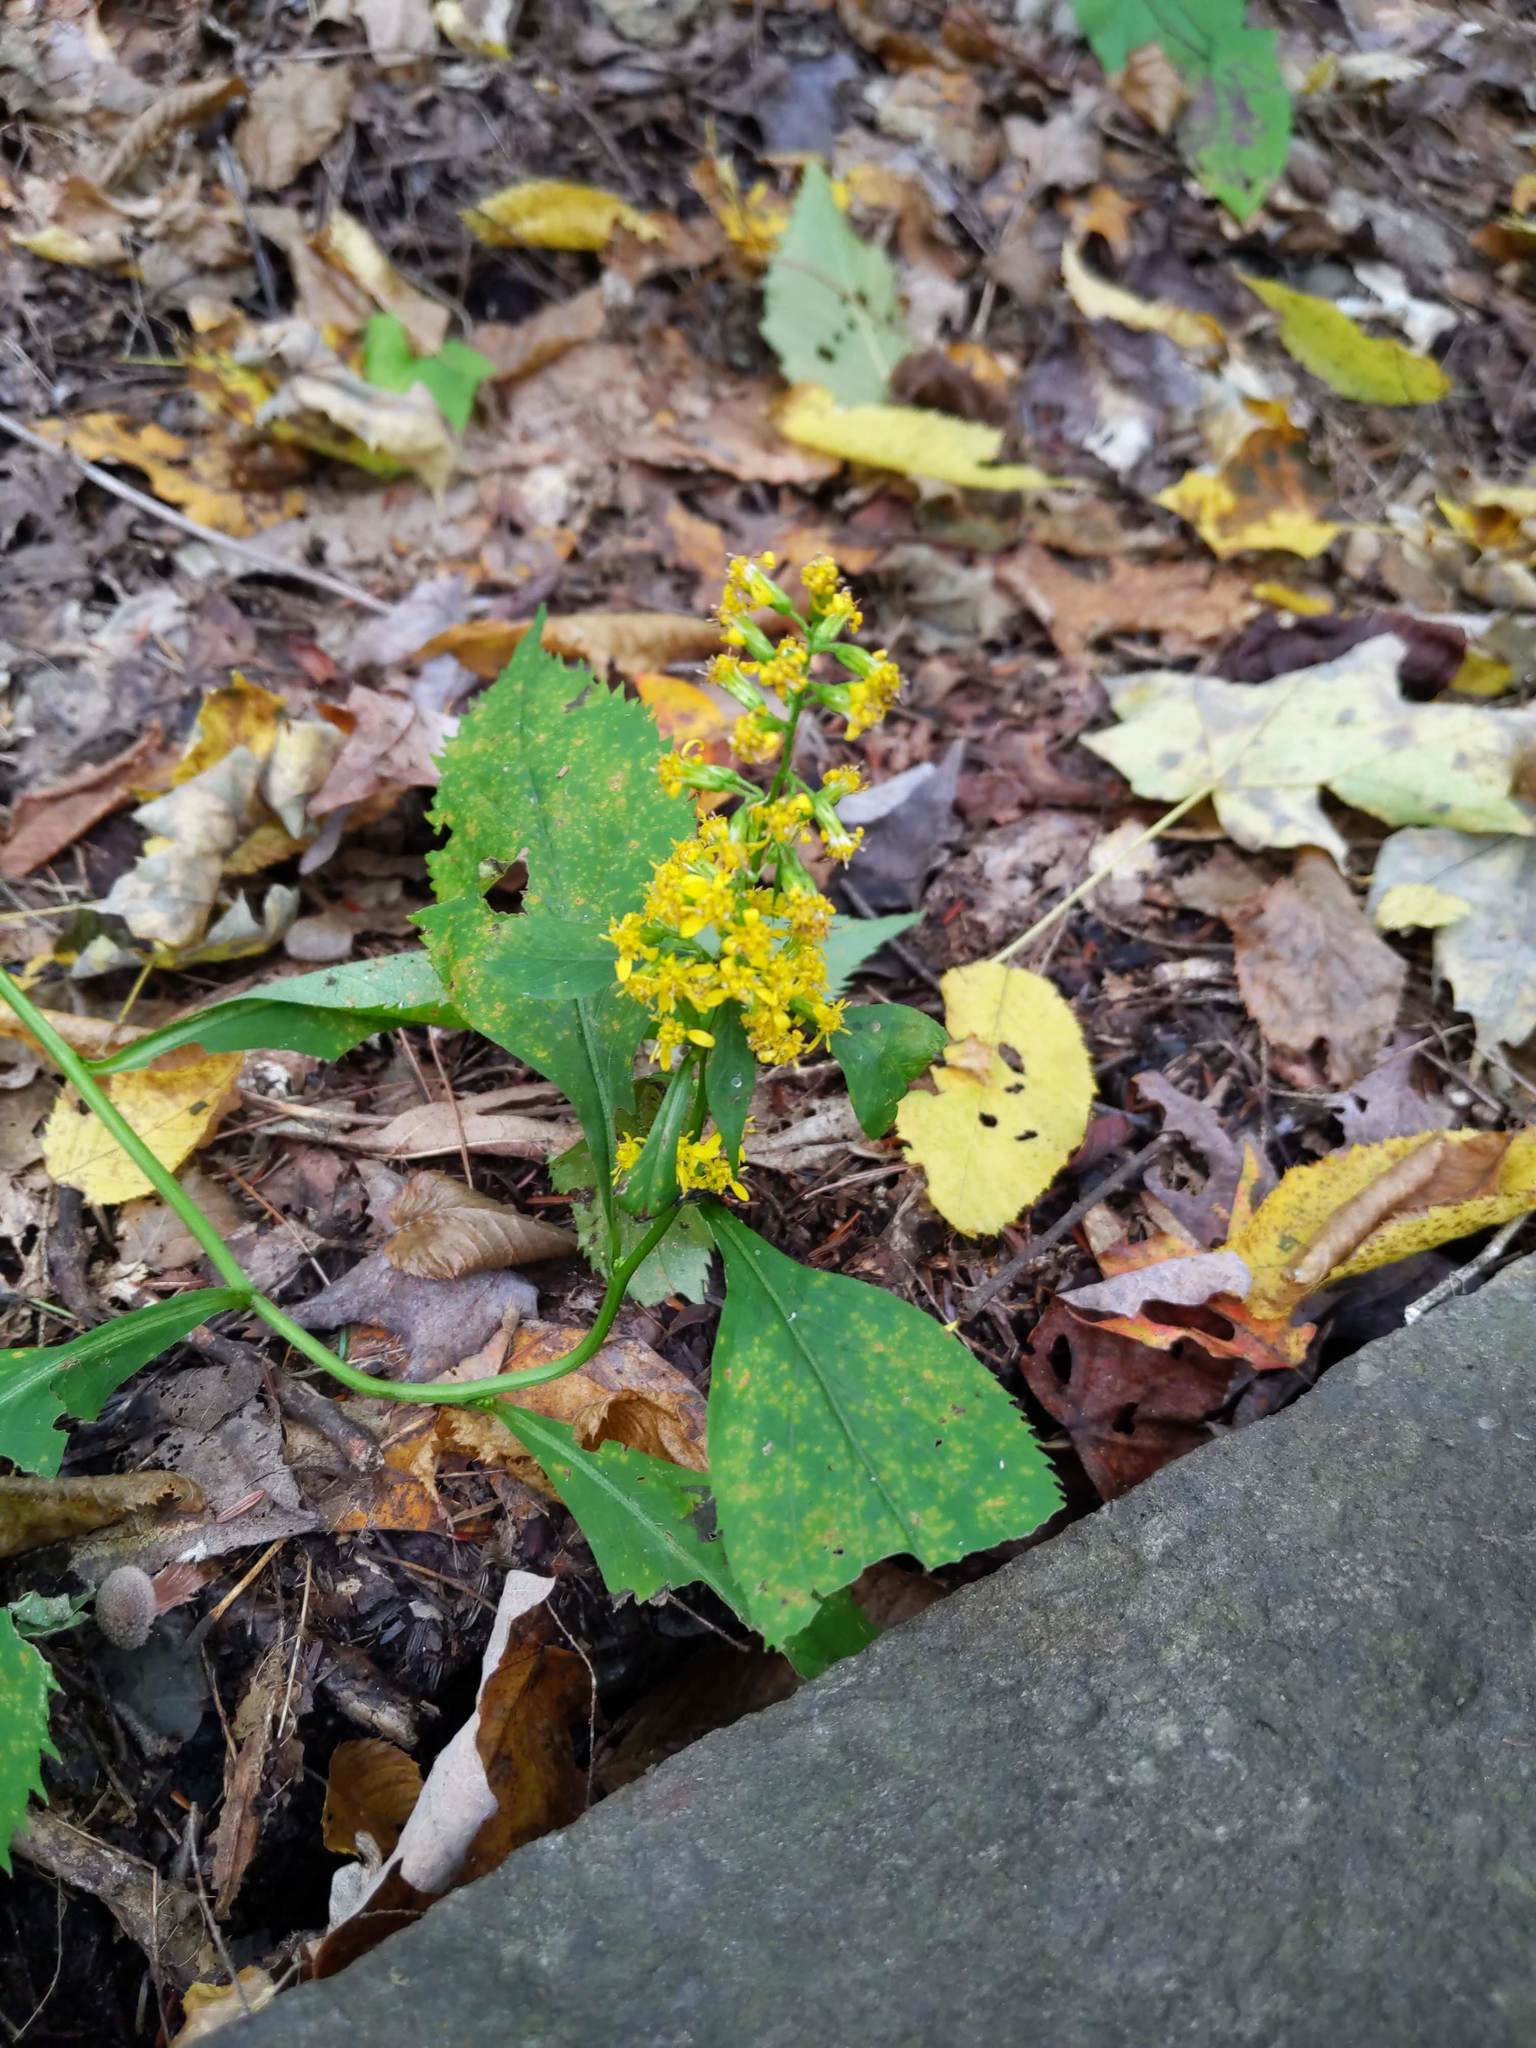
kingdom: Plantae
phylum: Tracheophyta
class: Magnoliopsida
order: Asterales
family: Asteraceae
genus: Solidago
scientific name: Solidago flexicaulis
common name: Zig-zag goldenrod
